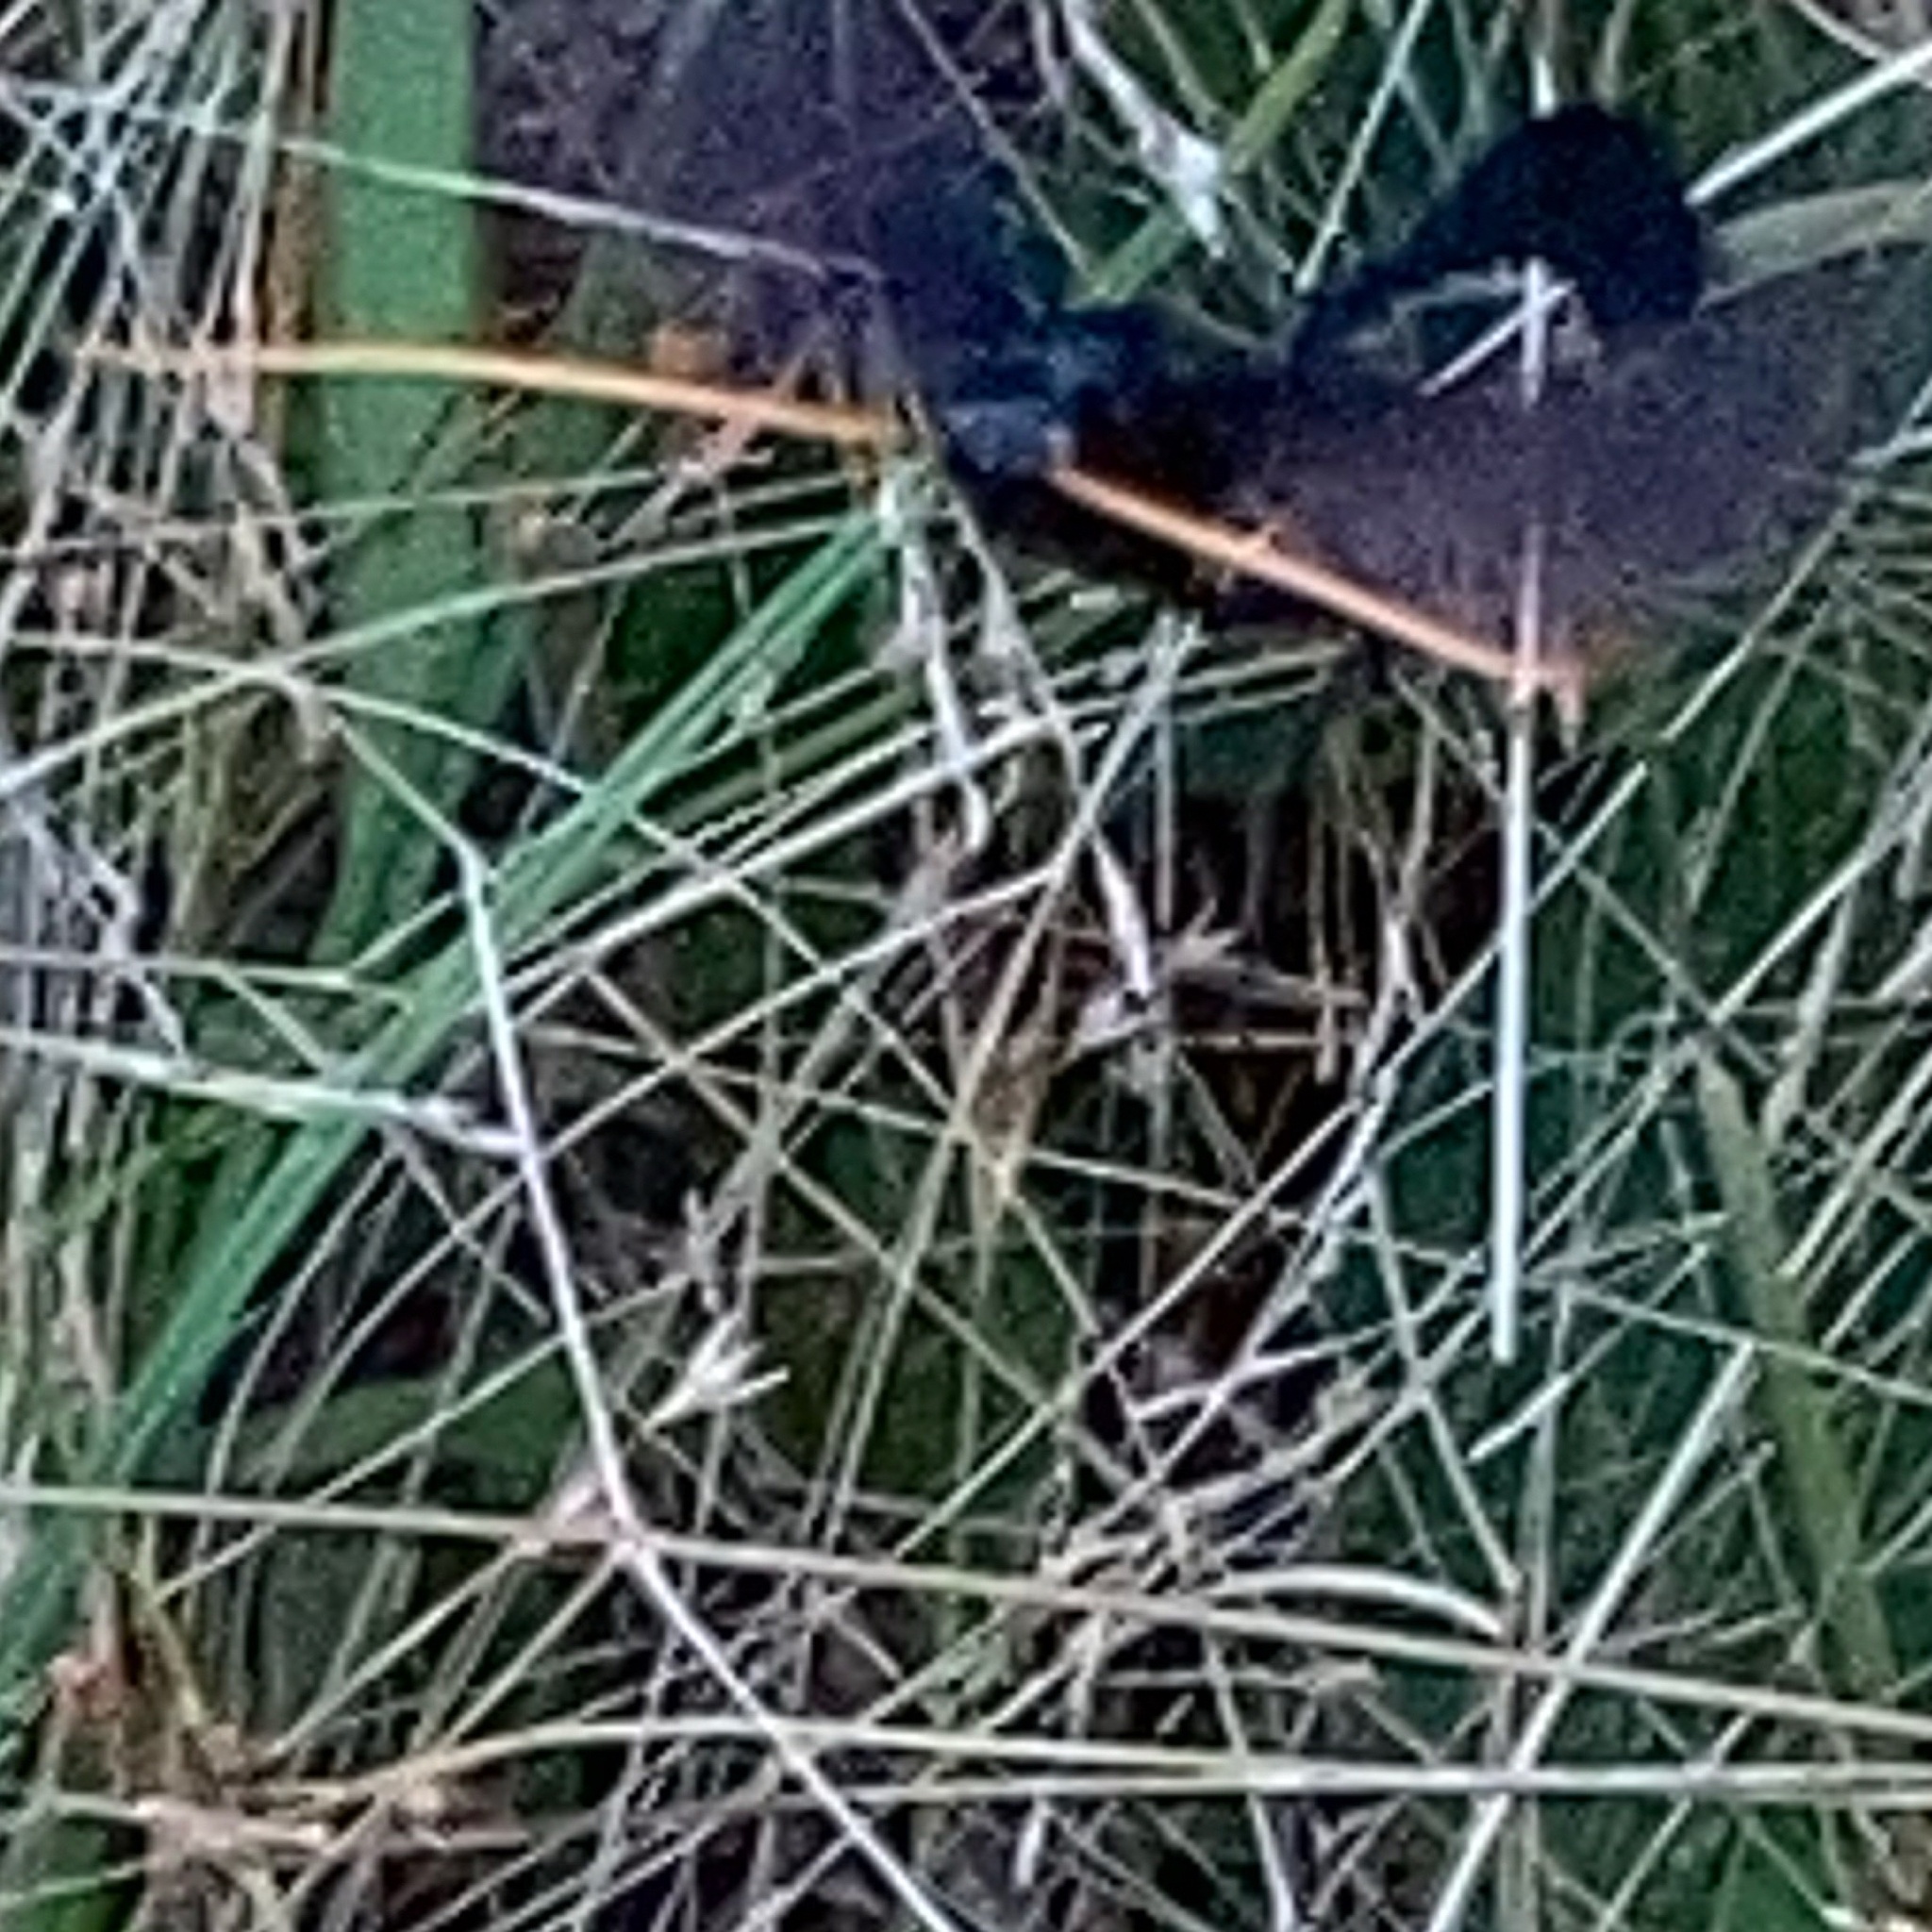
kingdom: Animalia
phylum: Arthropoda
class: Insecta
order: Hymenoptera
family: Ichneumonidae
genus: Thyreodon
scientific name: Thyreodon atricolor
